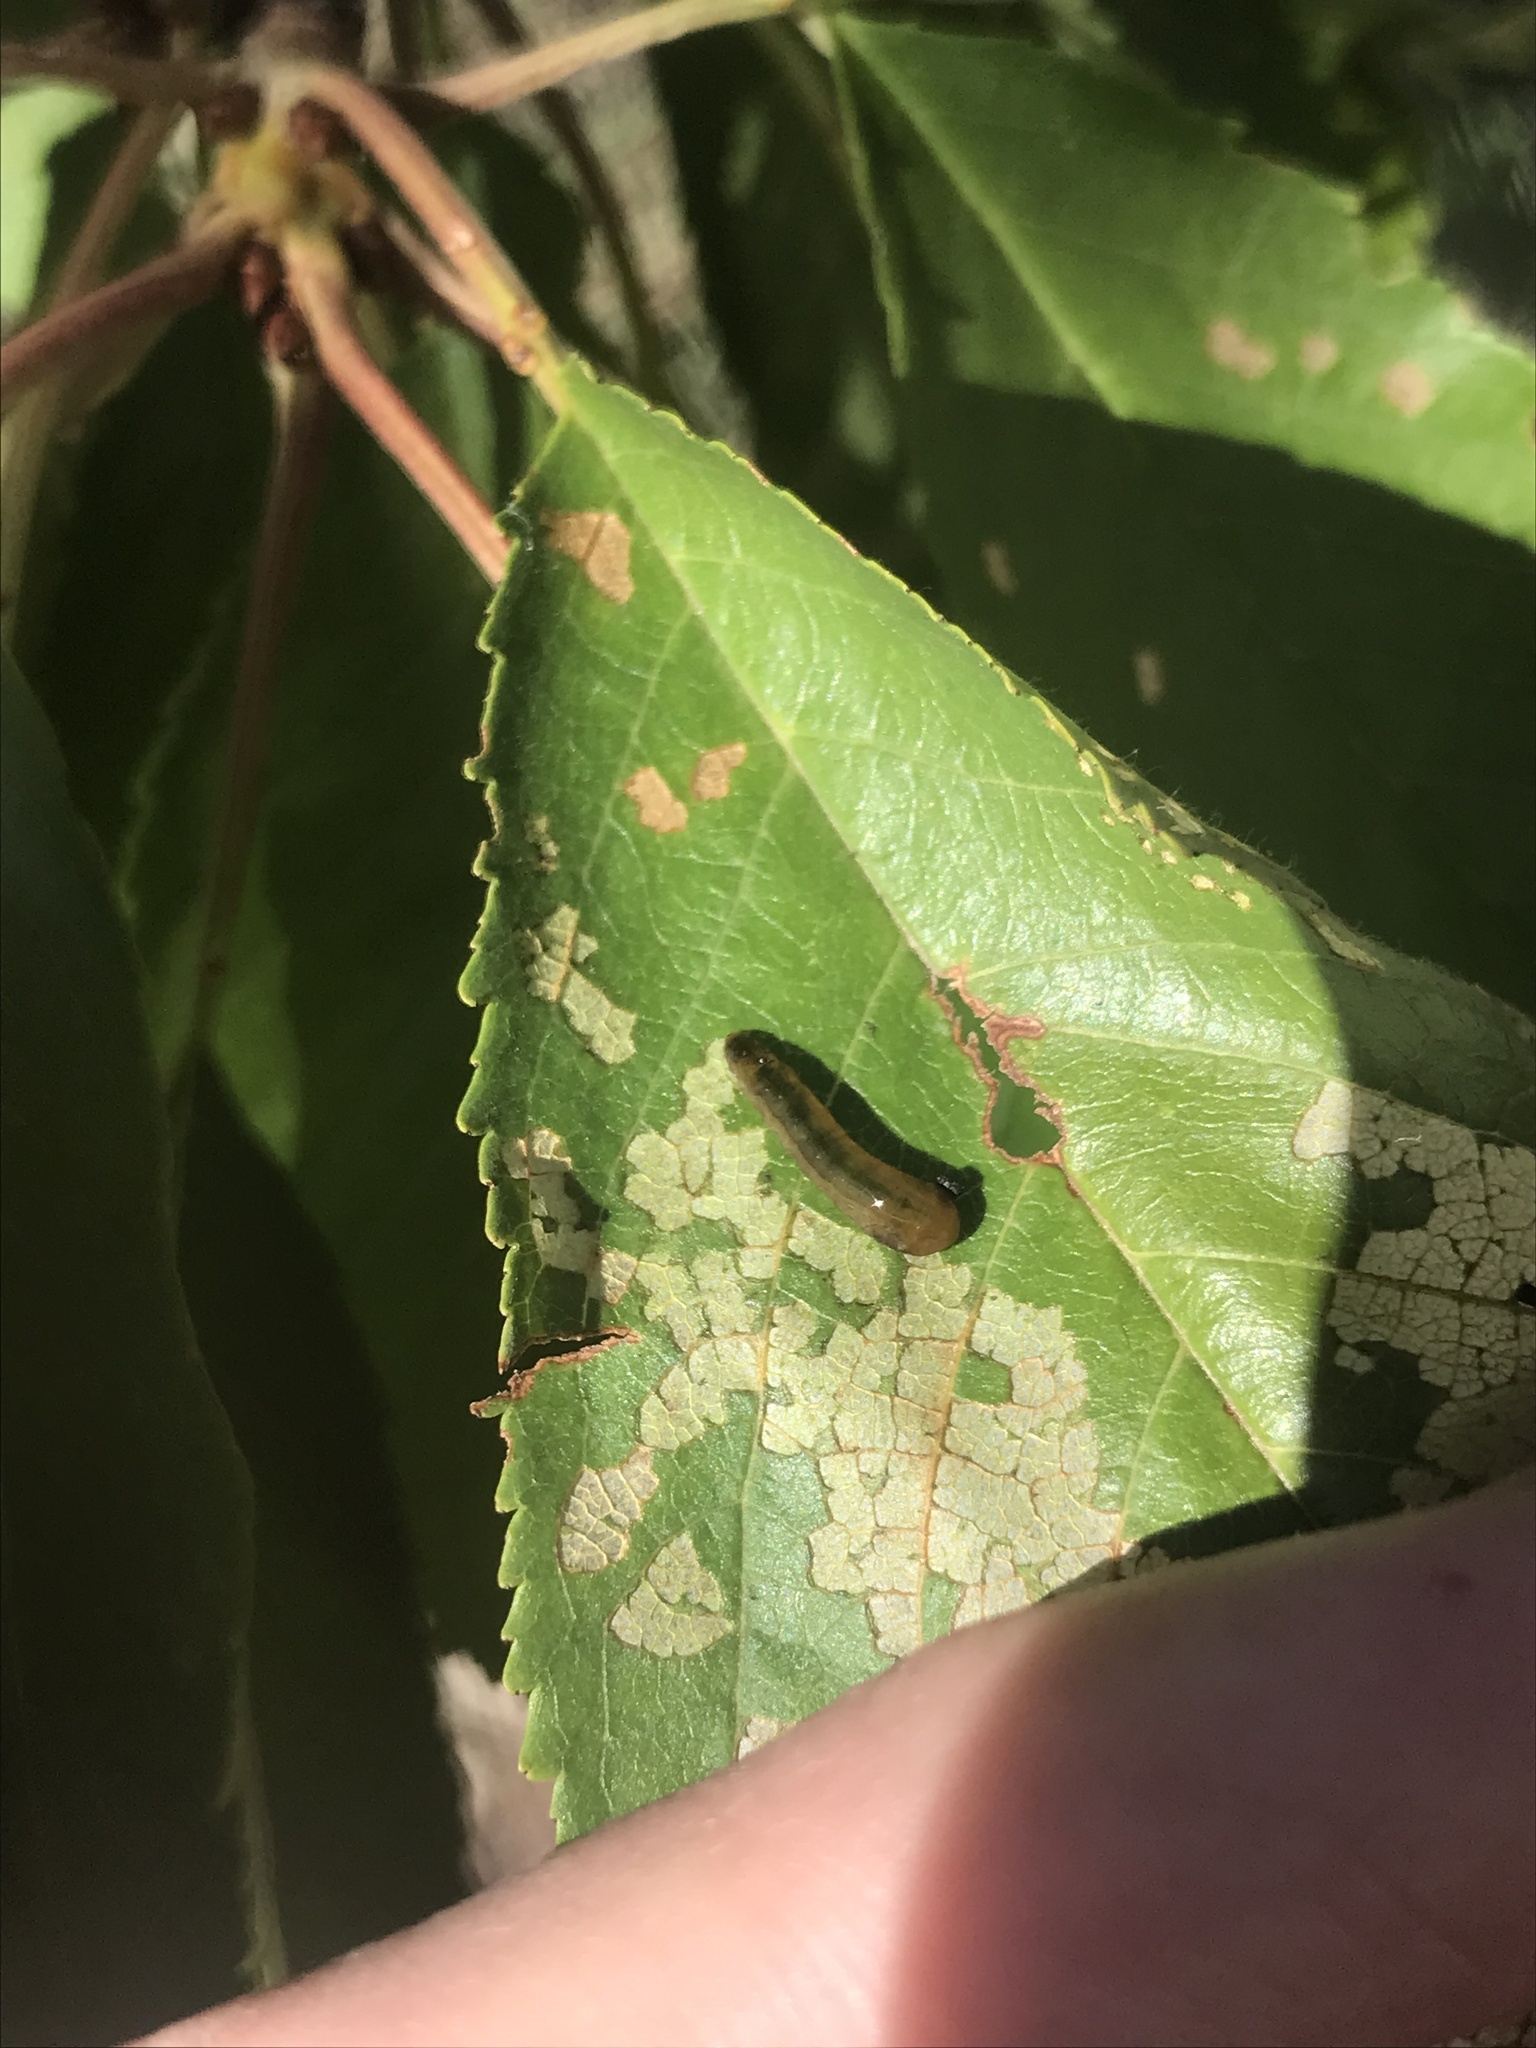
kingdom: Animalia
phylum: Arthropoda
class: Insecta
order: Hymenoptera
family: Tenthredinidae
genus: Caliroa
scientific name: Caliroa cerasi
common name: Pear sawfly
